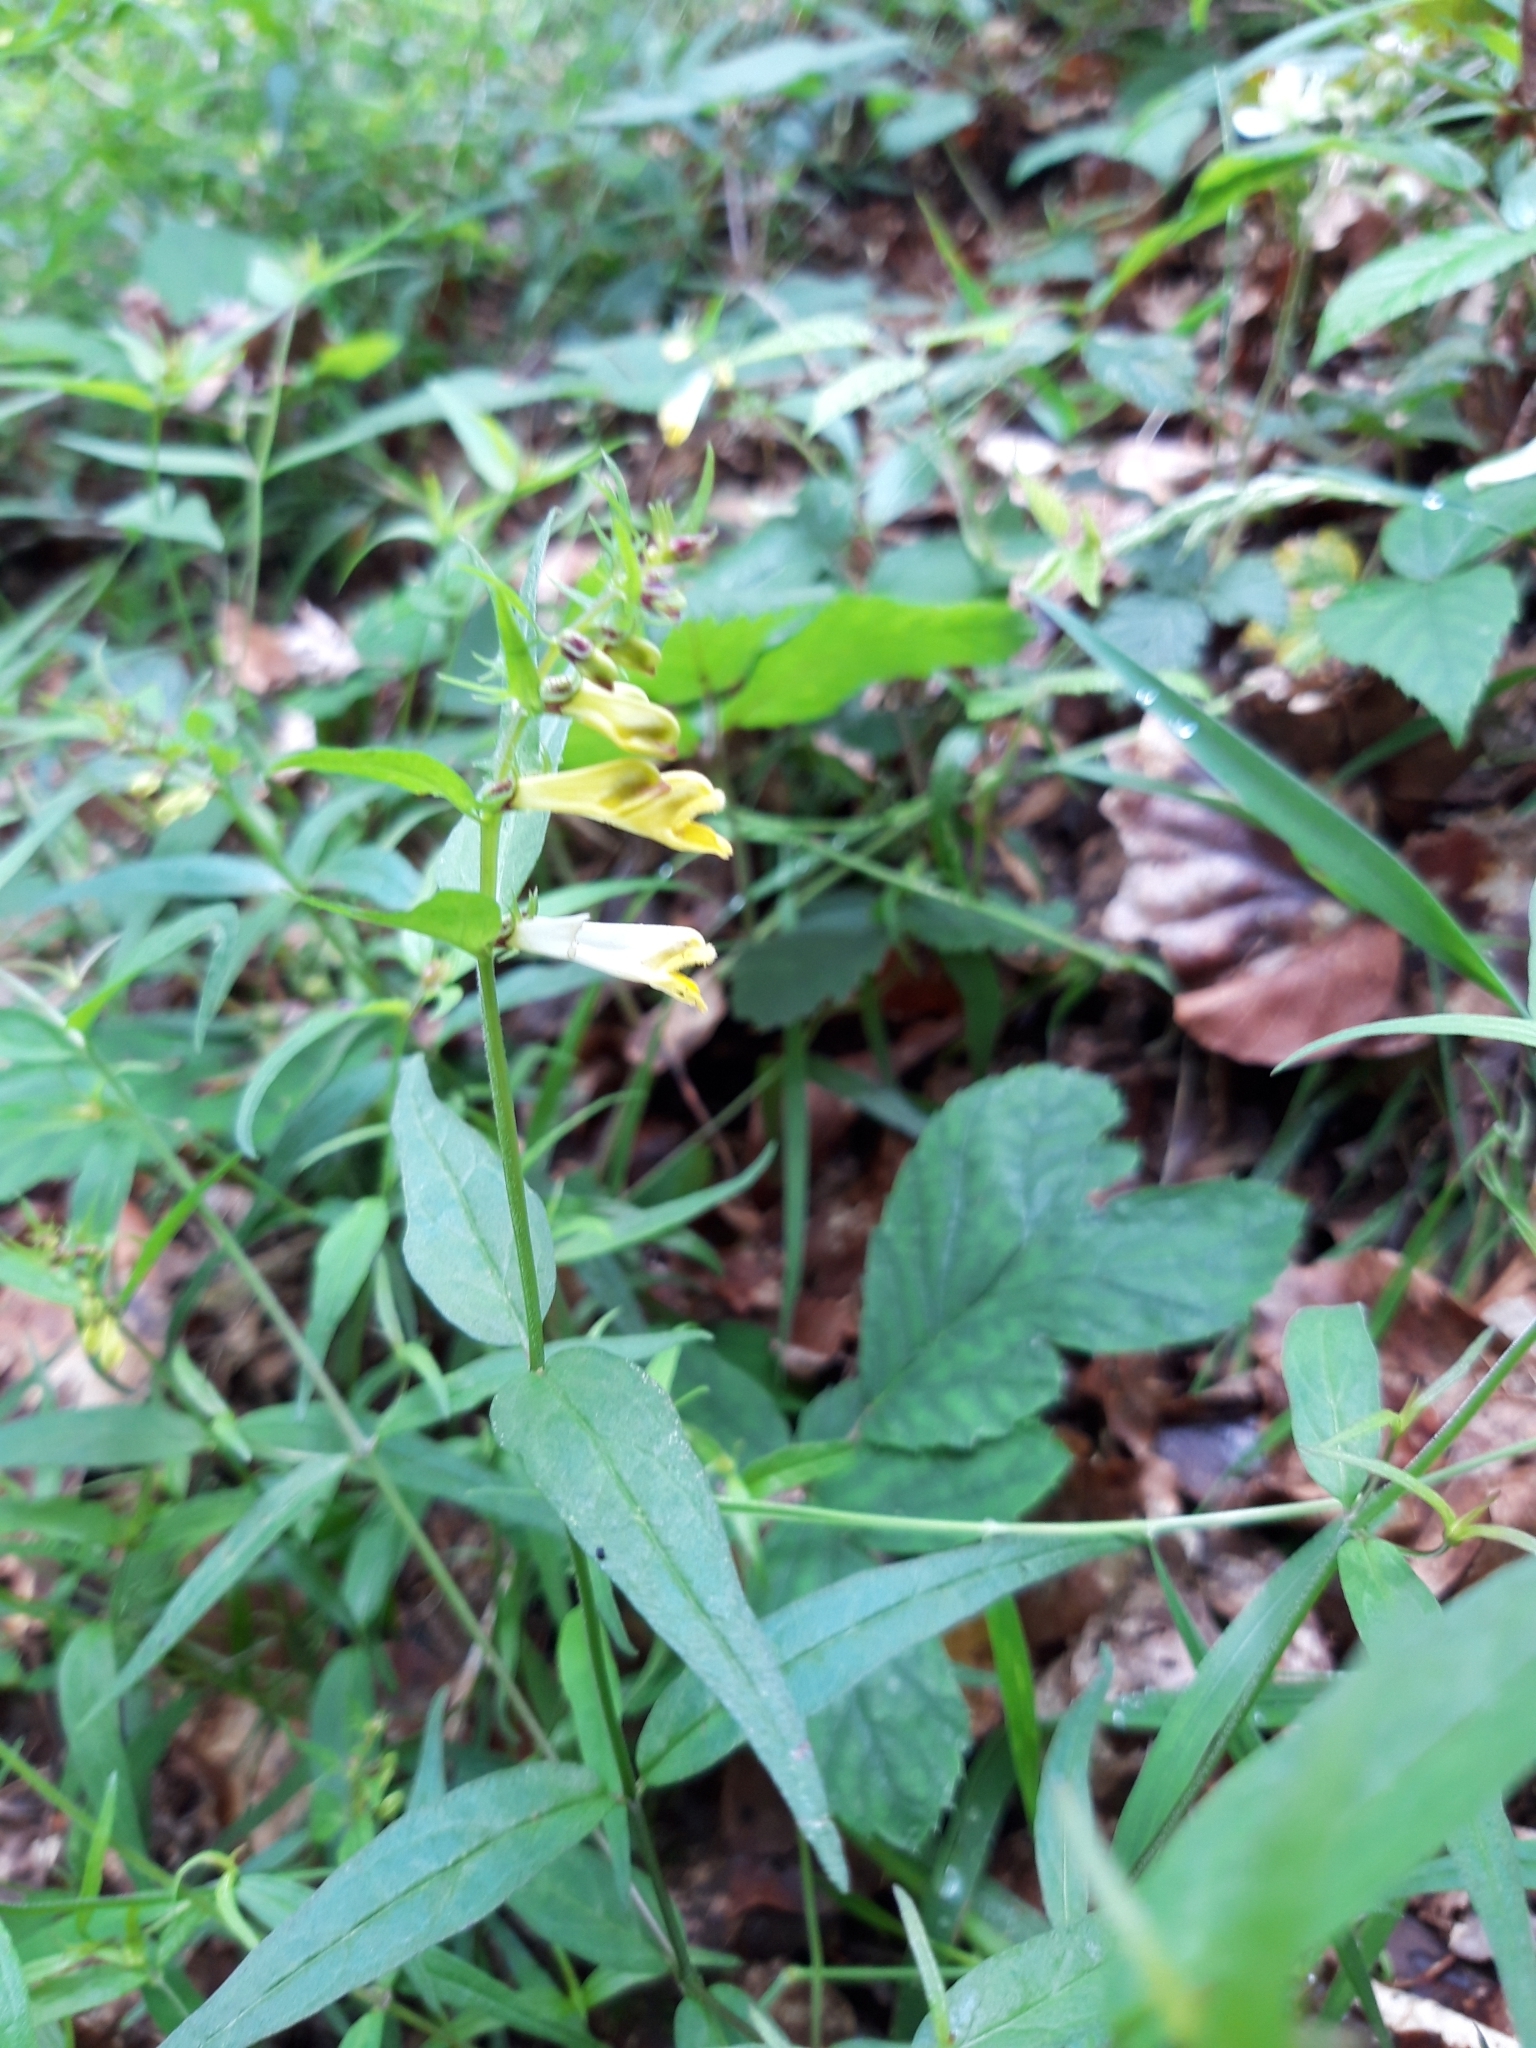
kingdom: Plantae
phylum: Tracheophyta
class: Magnoliopsida
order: Lamiales
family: Orobanchaceae
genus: Melampyrum
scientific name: Melampyrum pratense
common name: Common cow-wheat
